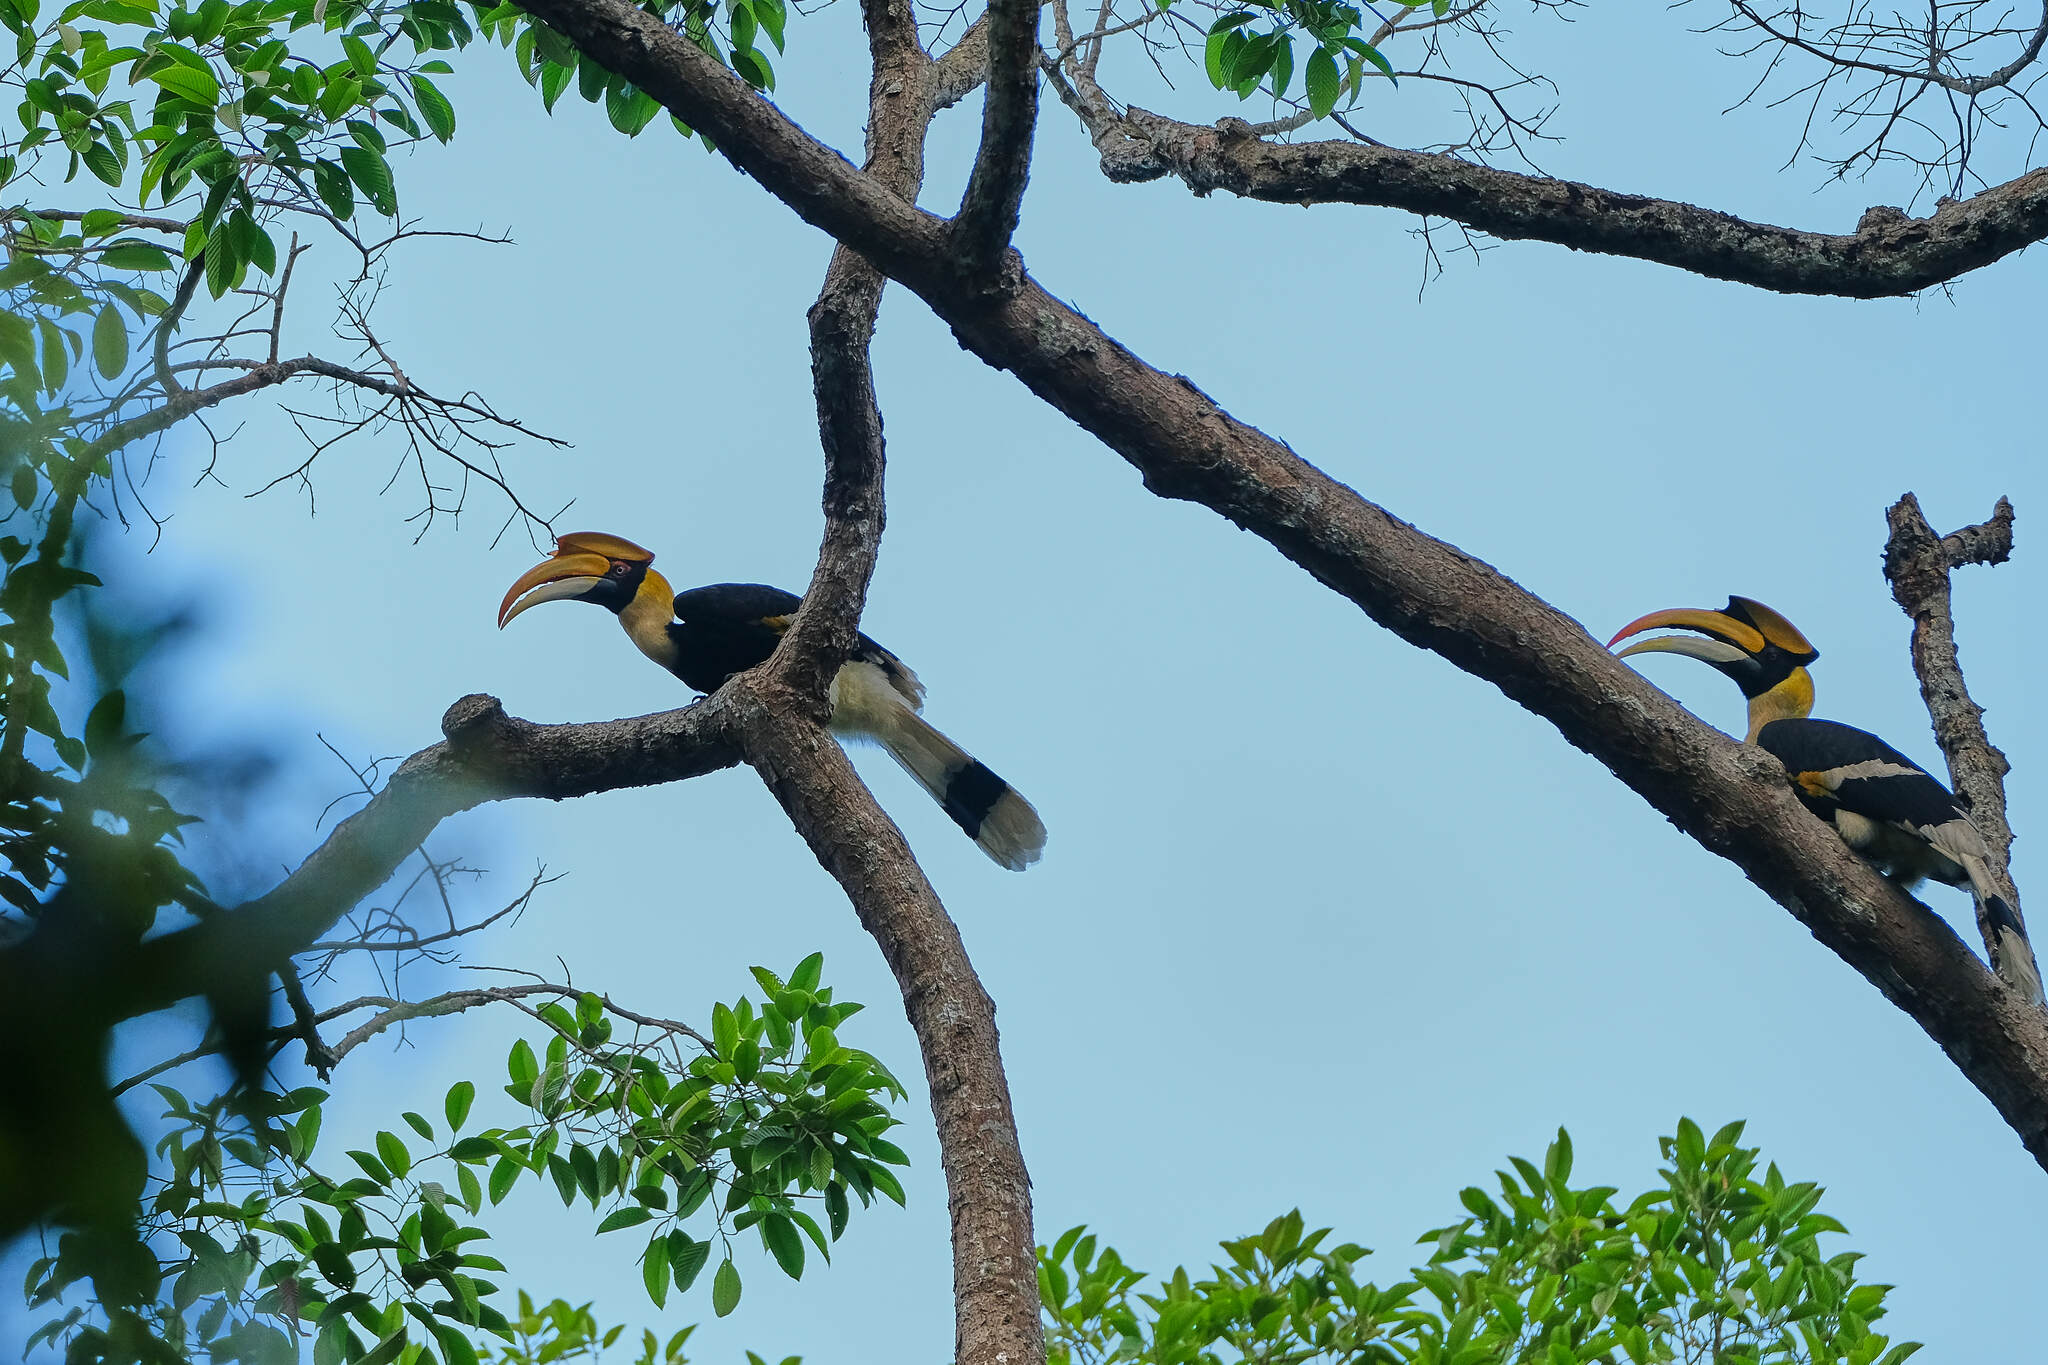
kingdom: Animalia
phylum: Chordata
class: Aves
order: Bucerotiformes
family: Bucerotidae
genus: Buceros
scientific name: Buceros bicornis
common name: Great hornbill
